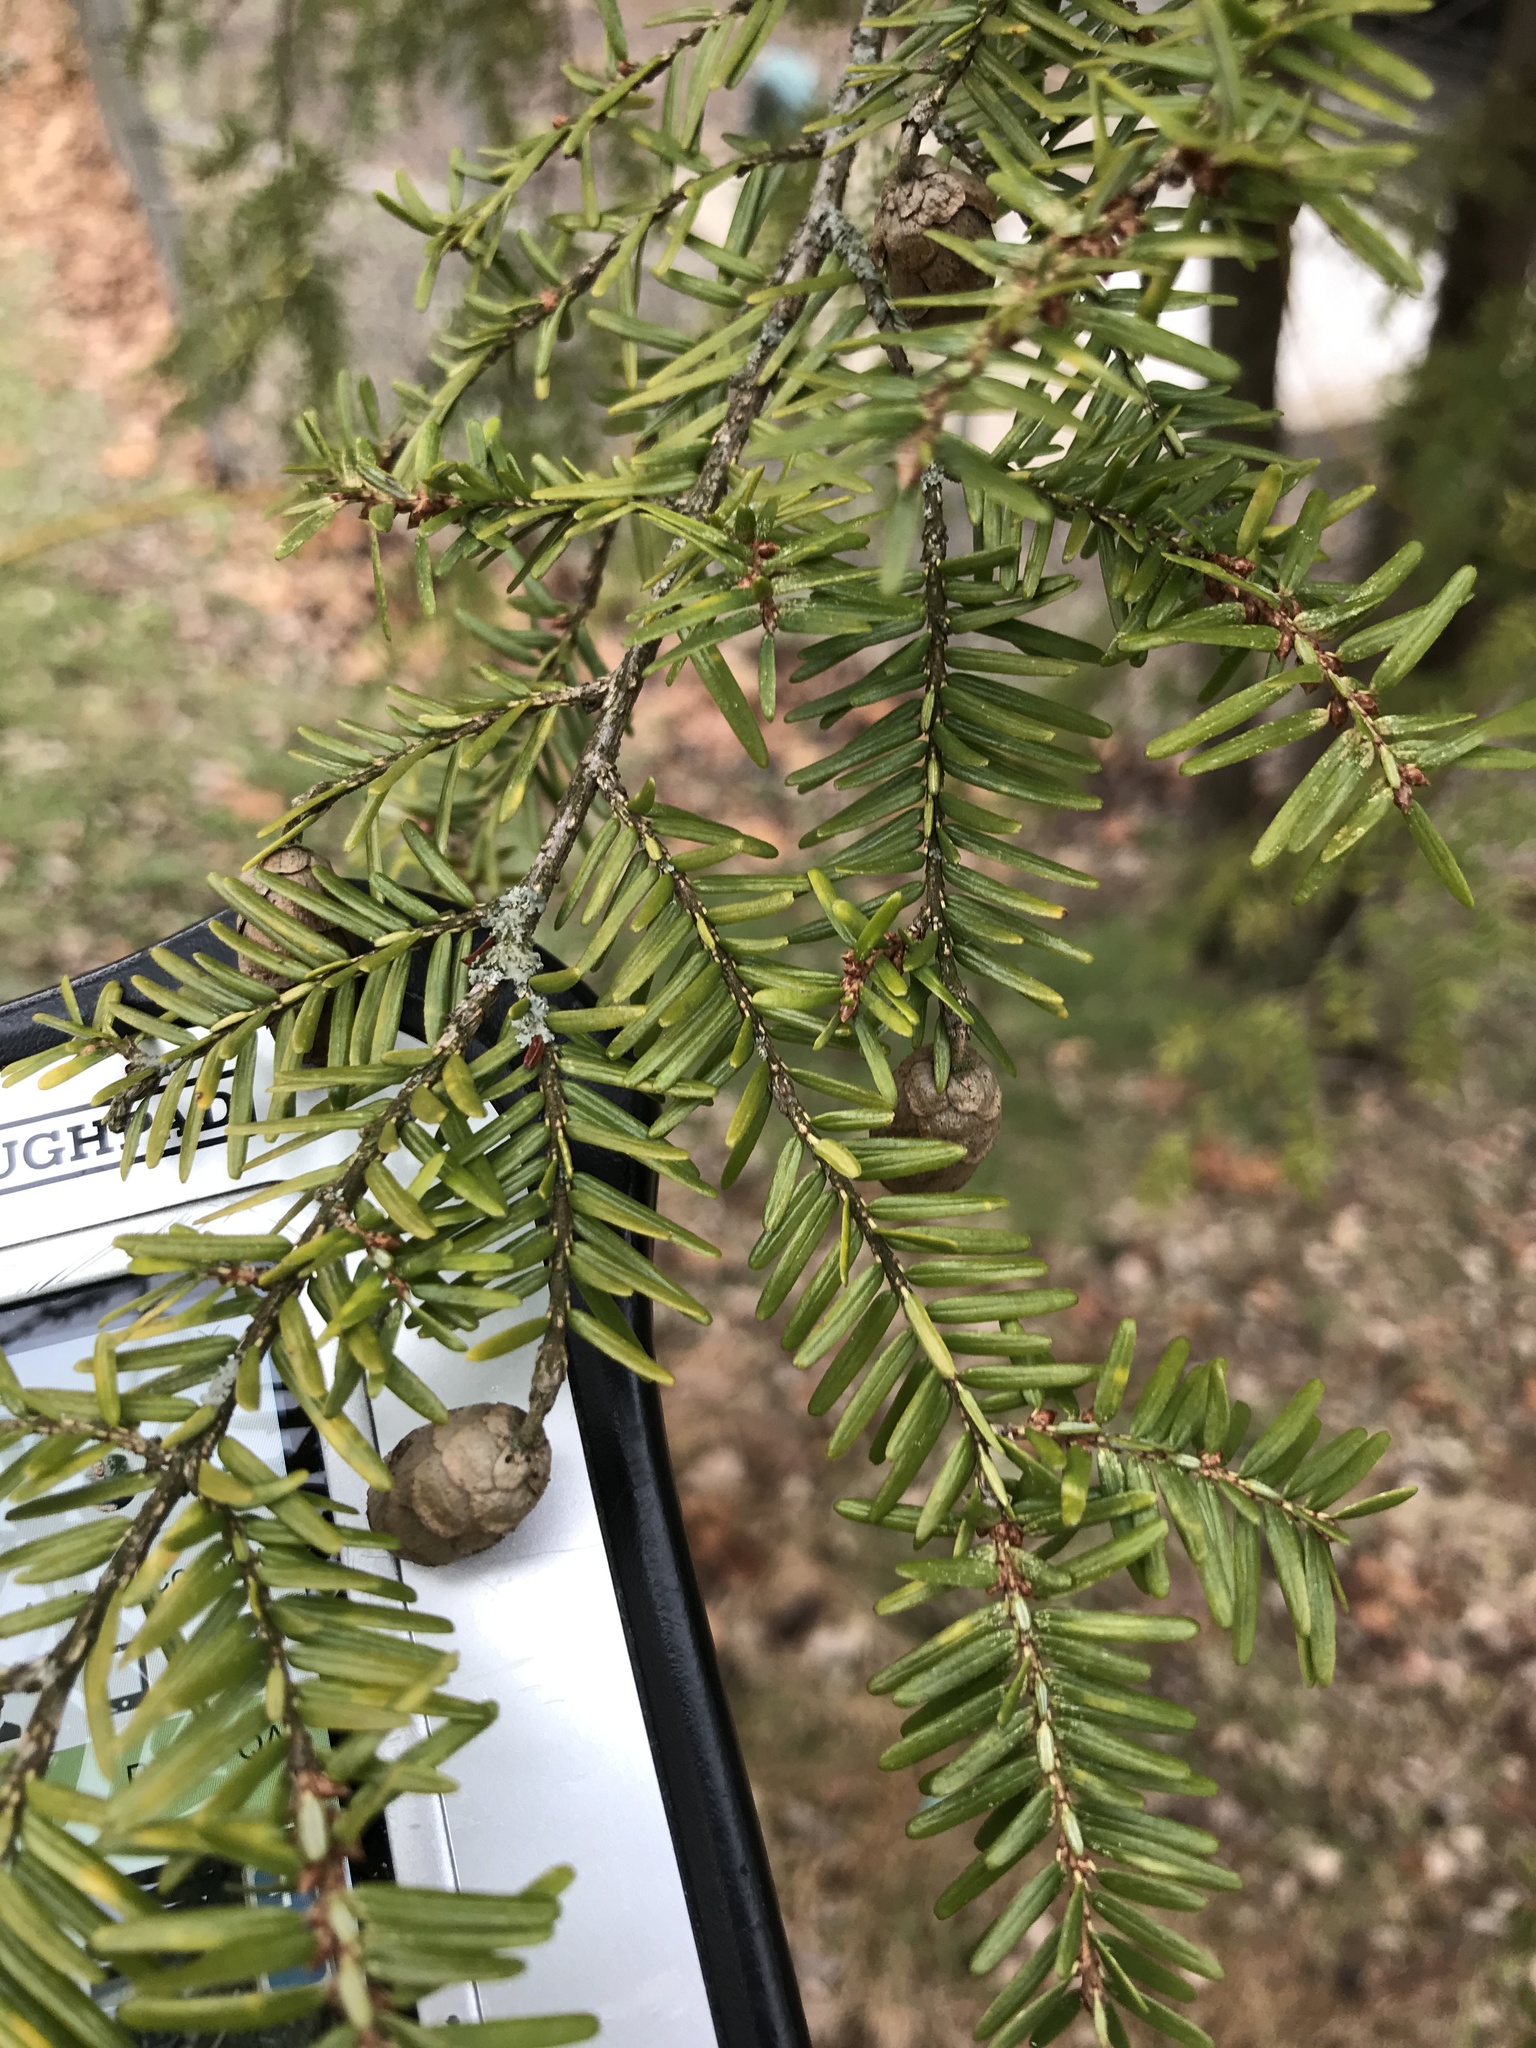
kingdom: Plantae
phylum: Tracheophyta
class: Pinopsida
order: Pinales
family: Pinaceae
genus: Tsuga
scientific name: Tsuga canadensis
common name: Eastern hemlock
